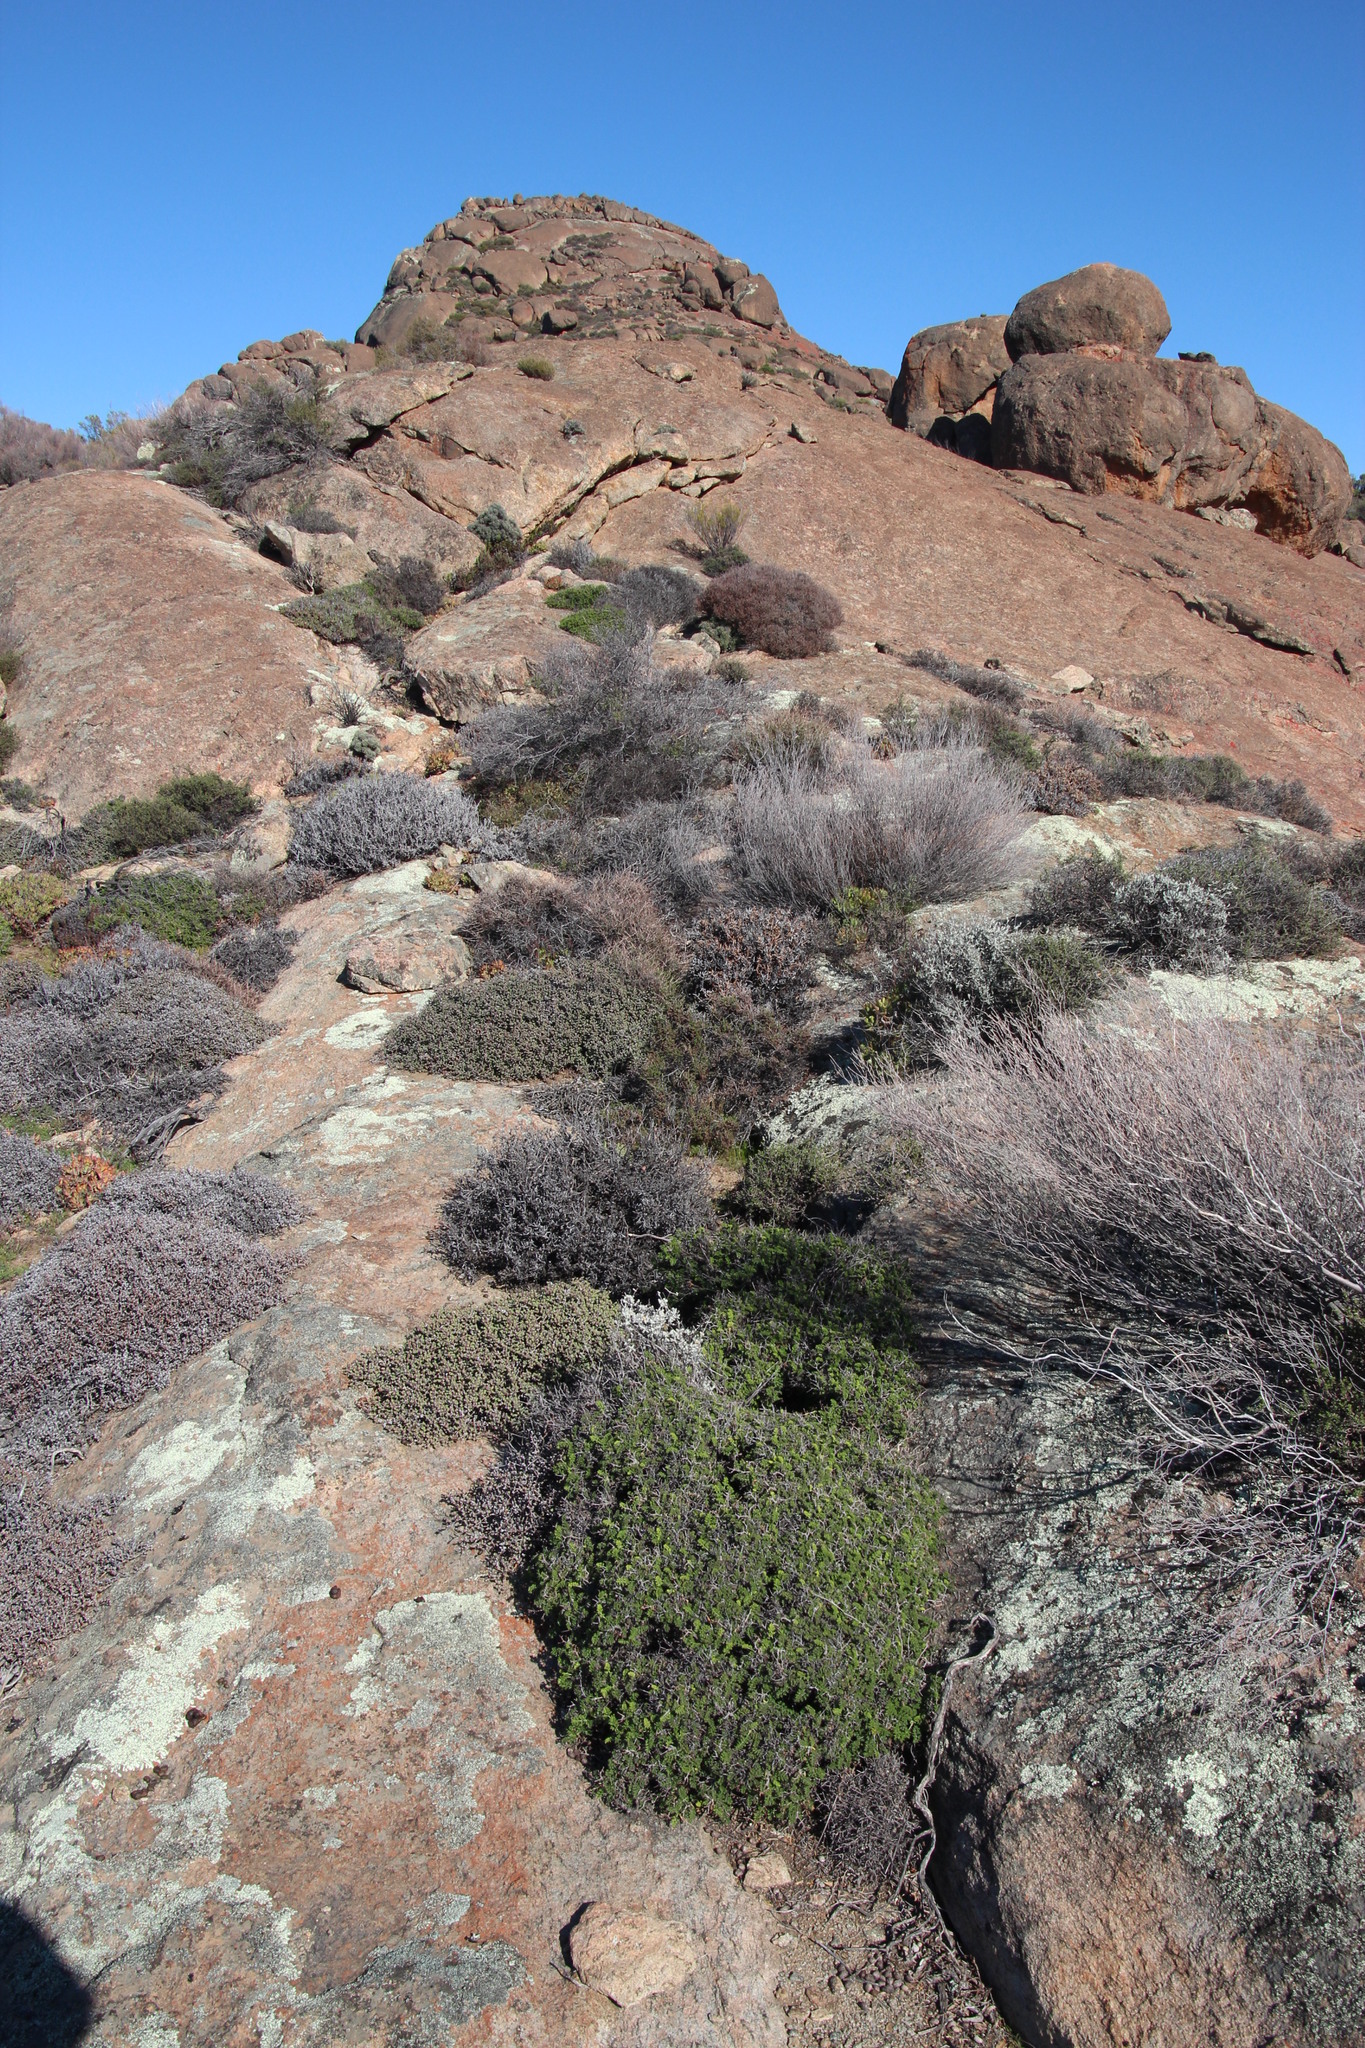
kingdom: Plantae
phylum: Tracheophyta
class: Magnoliopsida
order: Geraniales
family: Geraniaceae
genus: Pelargonium
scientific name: Pelargonium dasyphyllum
